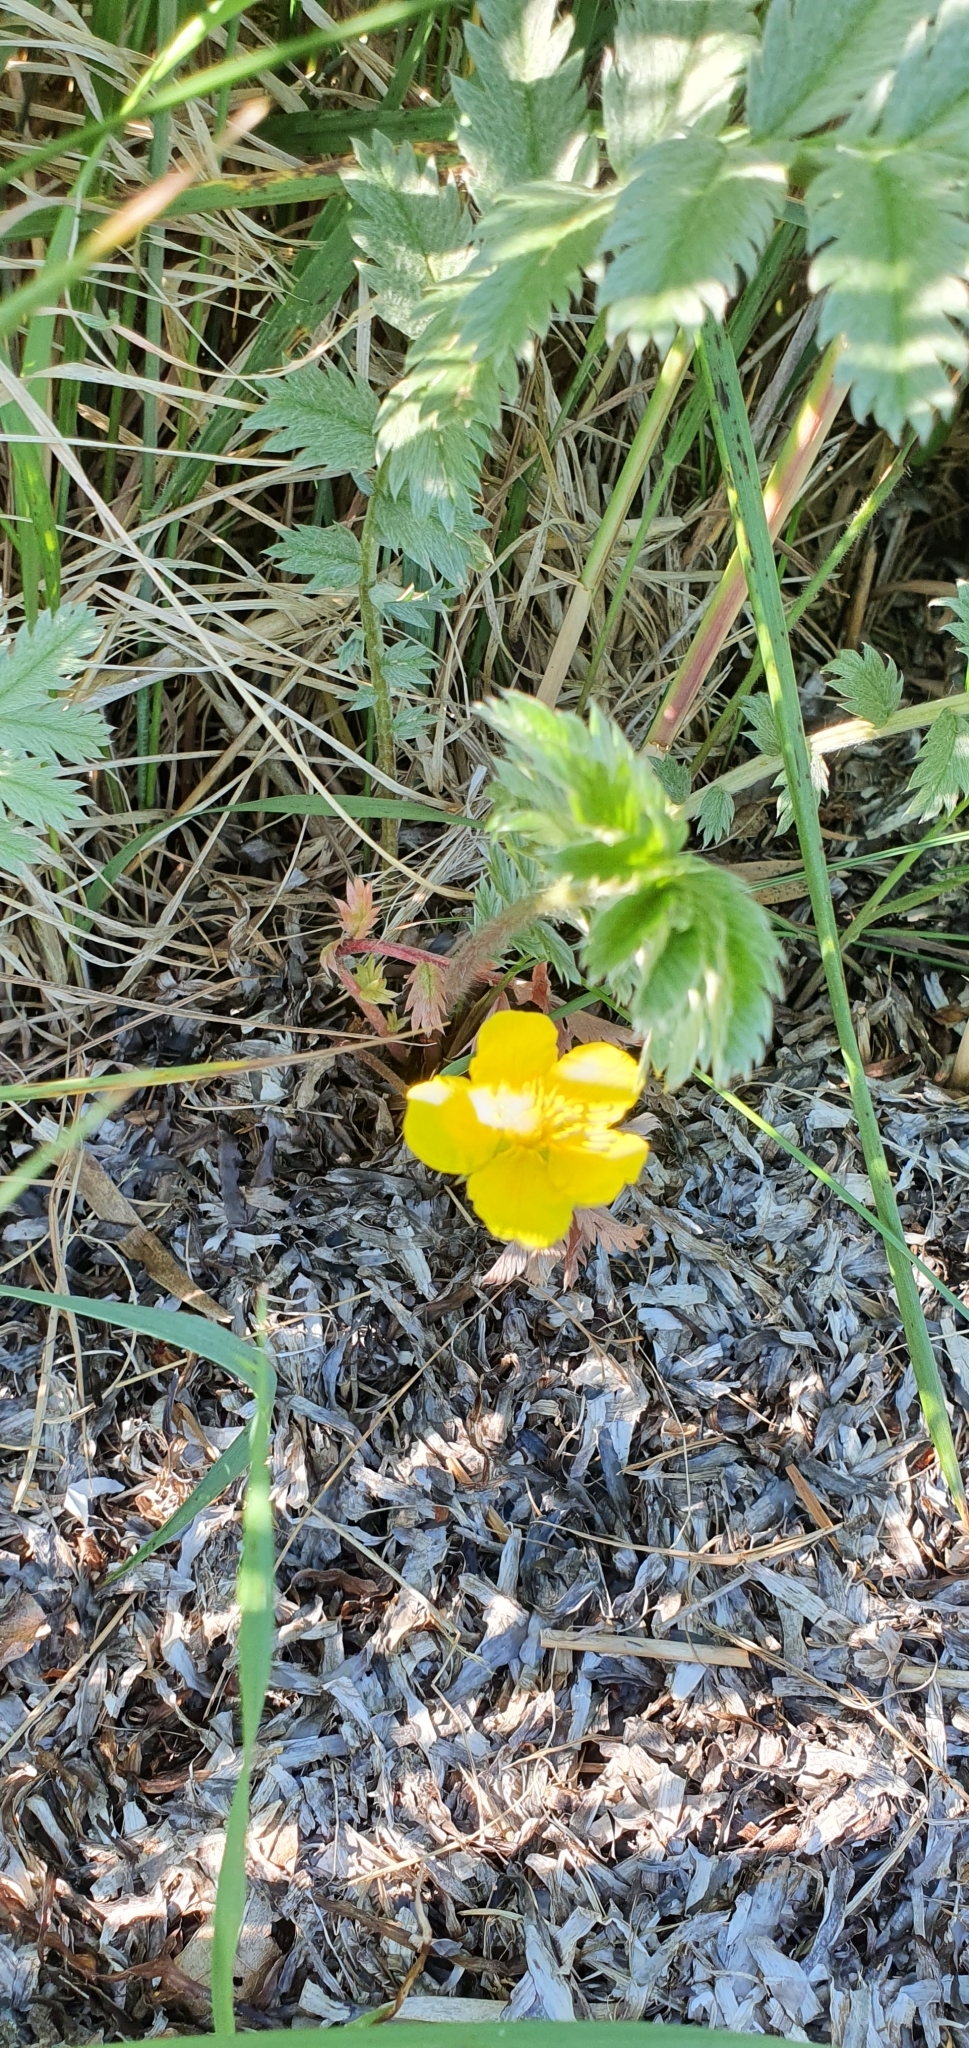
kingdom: Plantae
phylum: Tracheophyta
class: Magnoliopsida
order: Rosales
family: Rosaceae
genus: Argentina
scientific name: Argentina anserina
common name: Common silverweed
